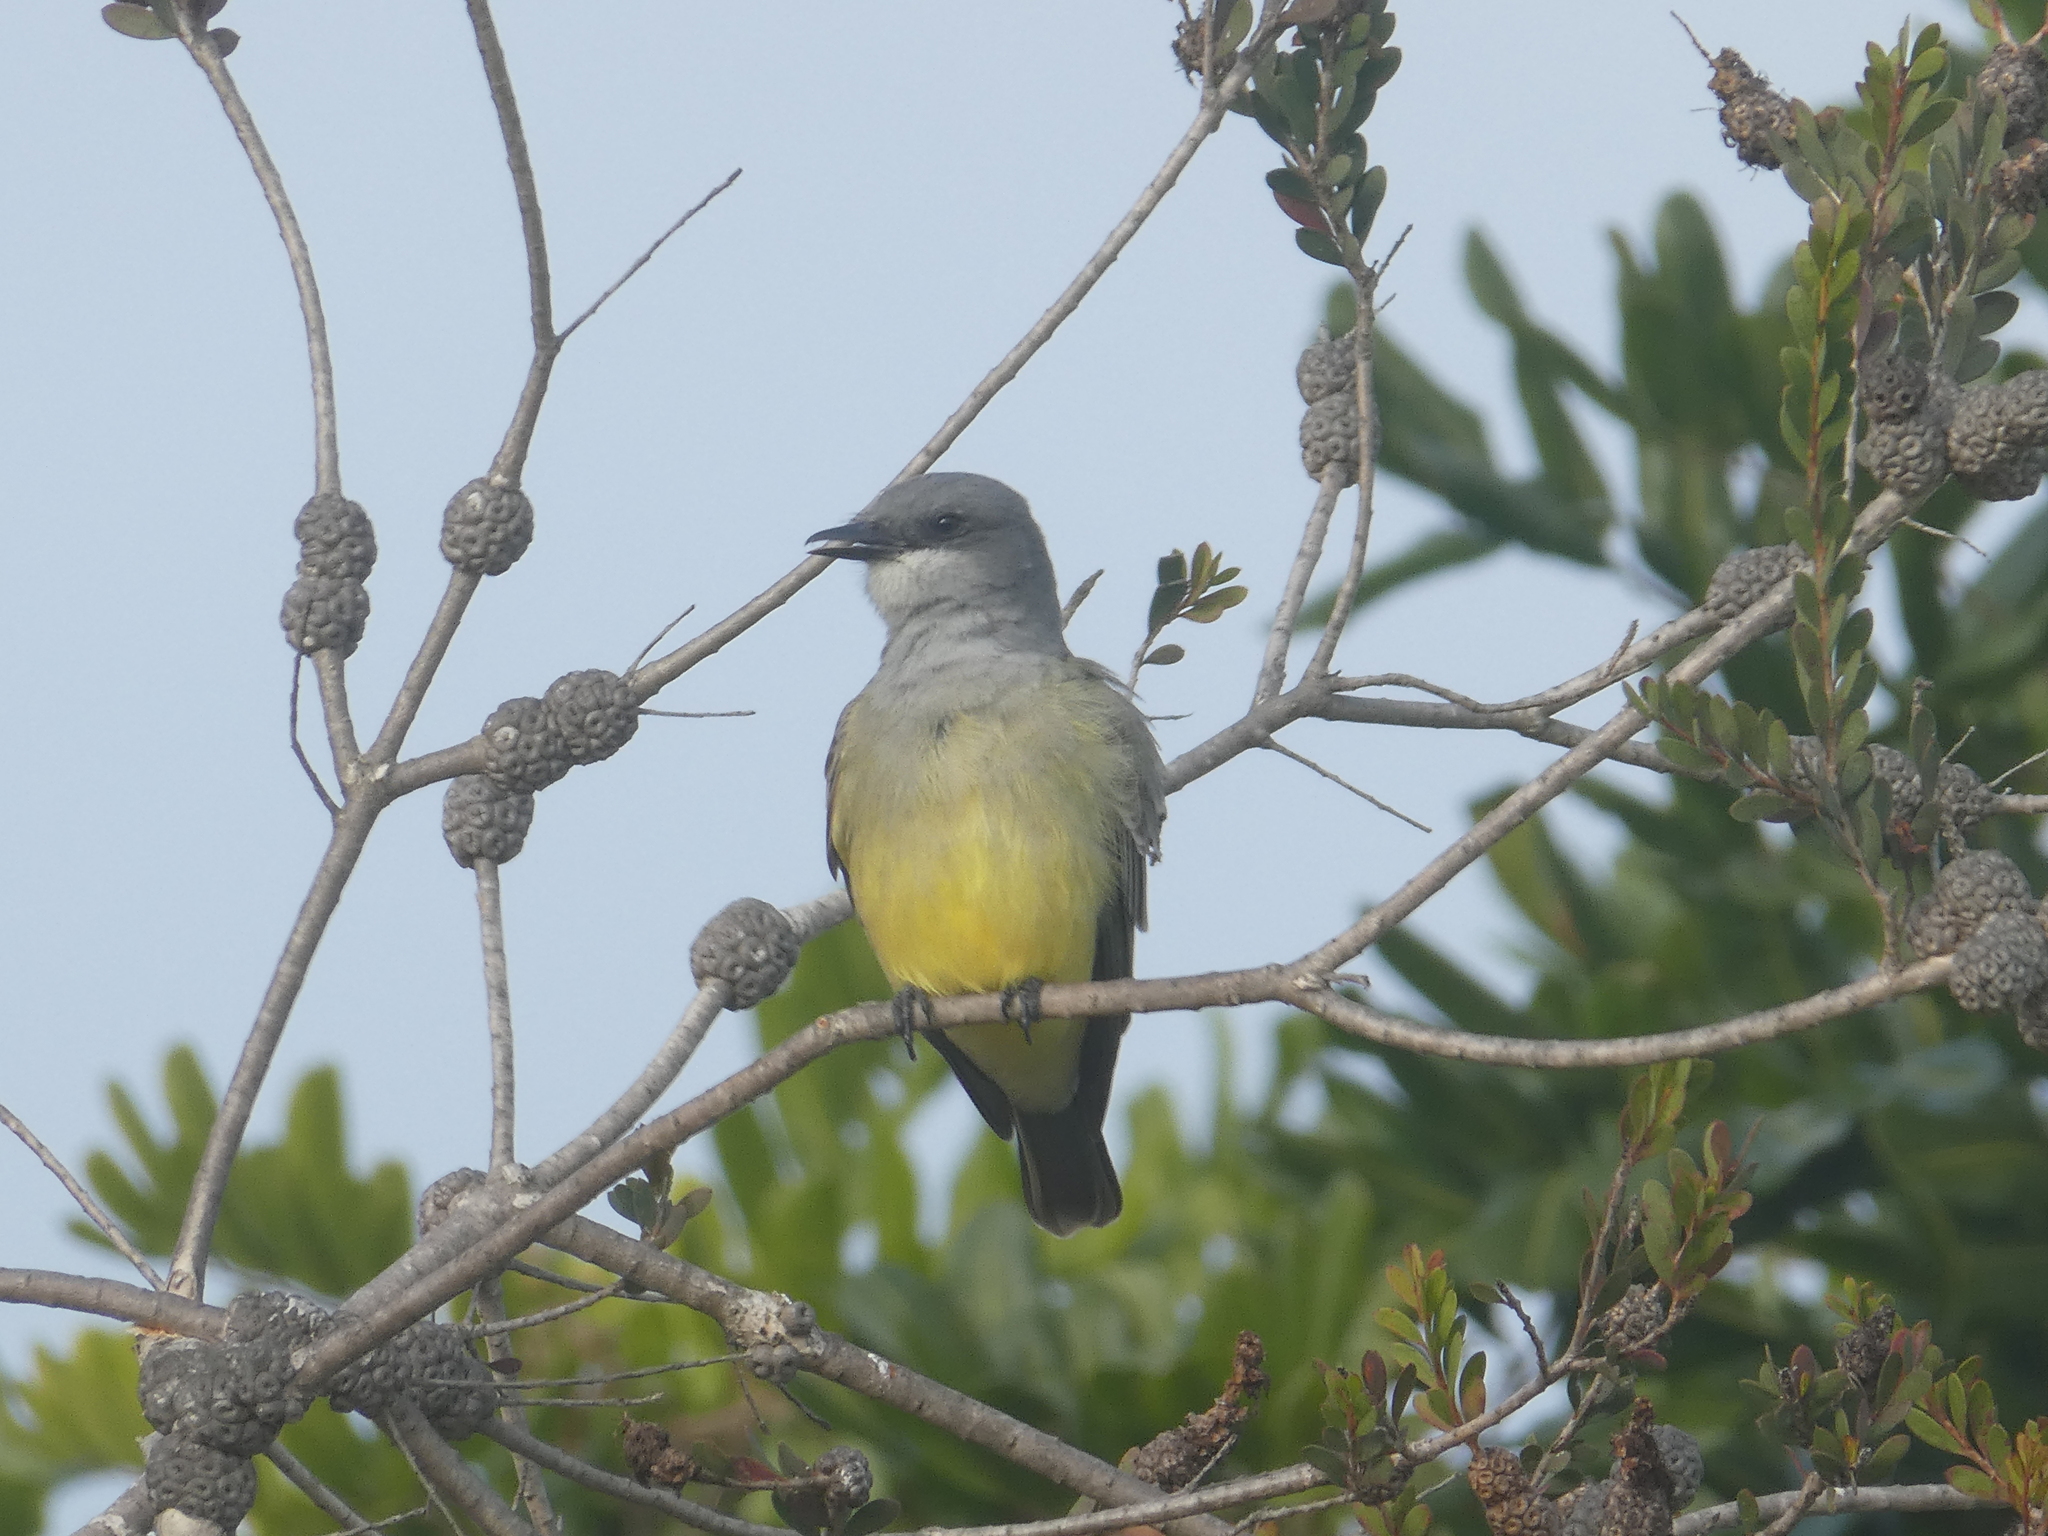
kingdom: Animalia
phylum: Chordata
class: Aves
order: Passeriformes
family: Tyrannidae
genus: Tyrannus
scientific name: Tyrannus vociferans
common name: Cassin's kingbird
